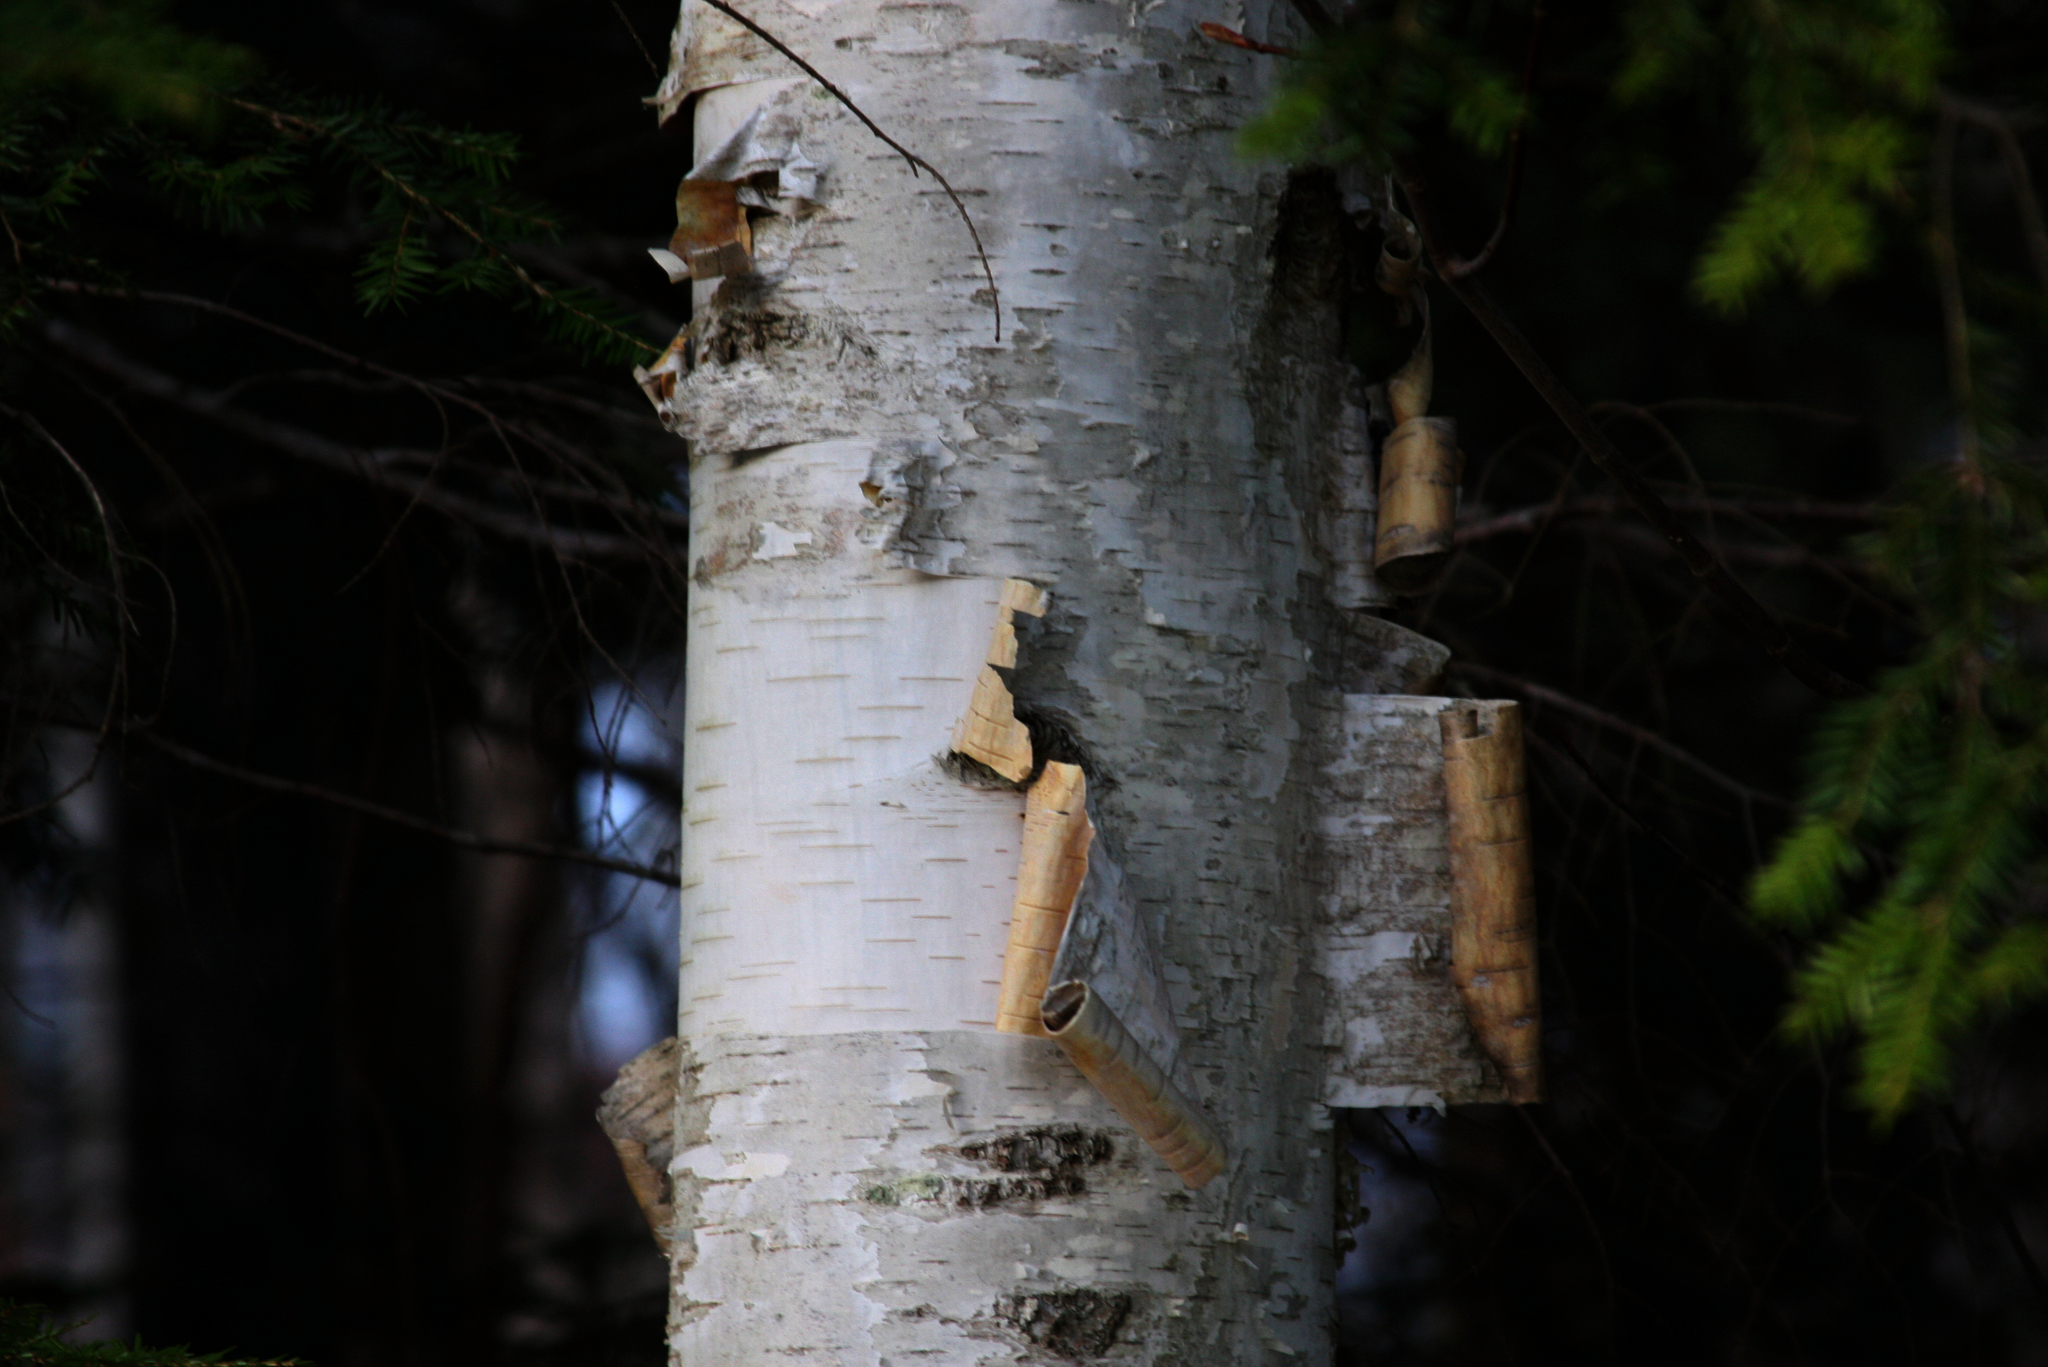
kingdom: Plantae
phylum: Tracheophyta
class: Magnoliopsida
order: Fagales
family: Betulaceae
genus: Betula
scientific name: Betula papyrifera
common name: Paper birch
